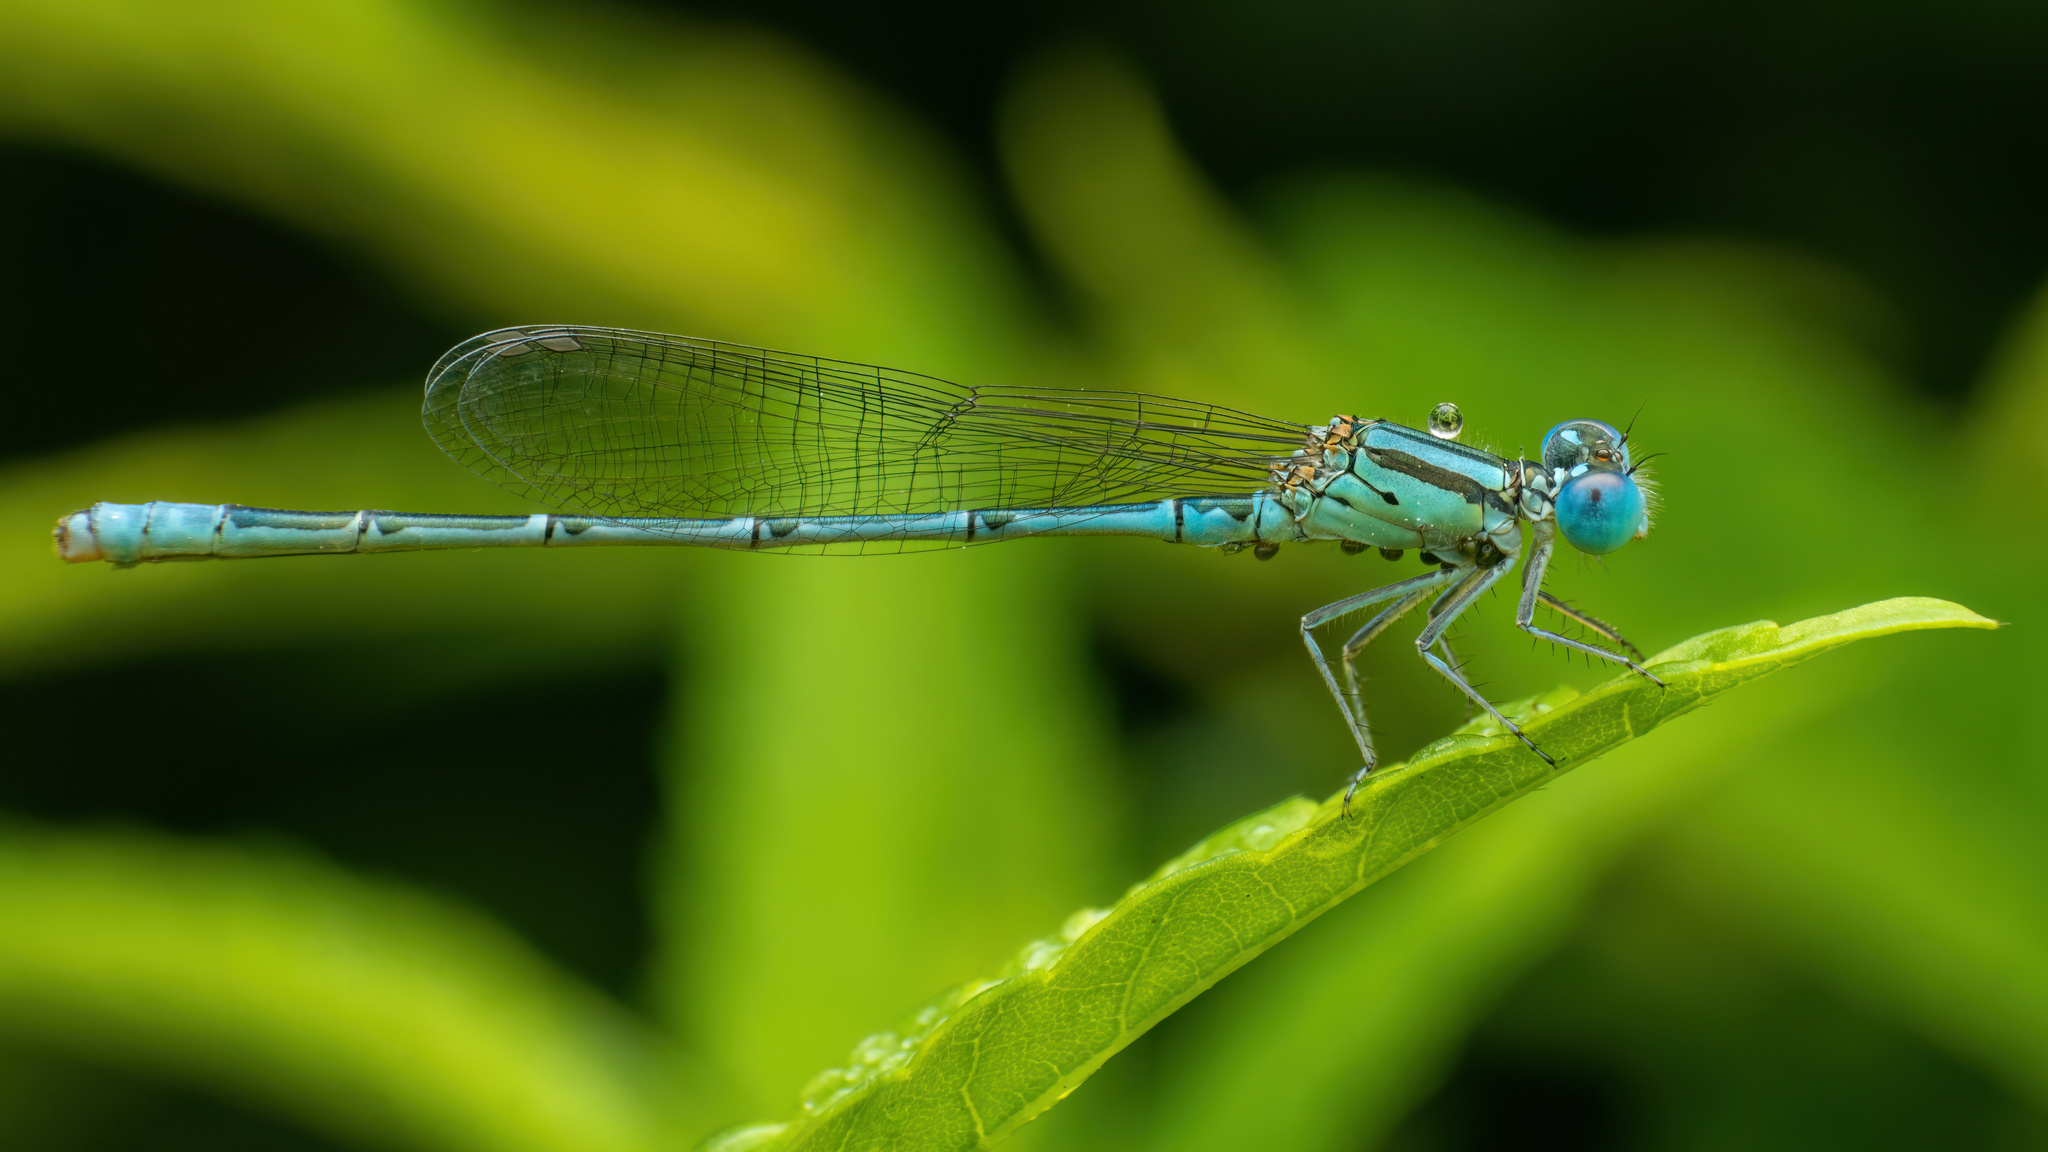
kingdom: Animalia
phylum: Arthropoda
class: Insecta
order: Odonata
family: Coenagrionidae
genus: Paracercion
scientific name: Paracercion melanotum
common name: Eastern lilysquatter
